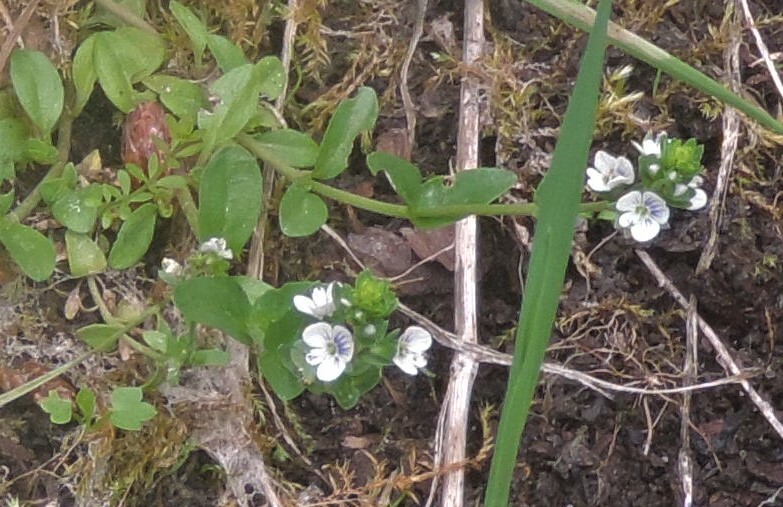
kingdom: Plantae
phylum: Tracheophyta
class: Magnoliopsida
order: Lamiales
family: Plantaginaceae
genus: Veronica
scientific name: Veronica serpyllifolia
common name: Thyme-leaved speedwell
